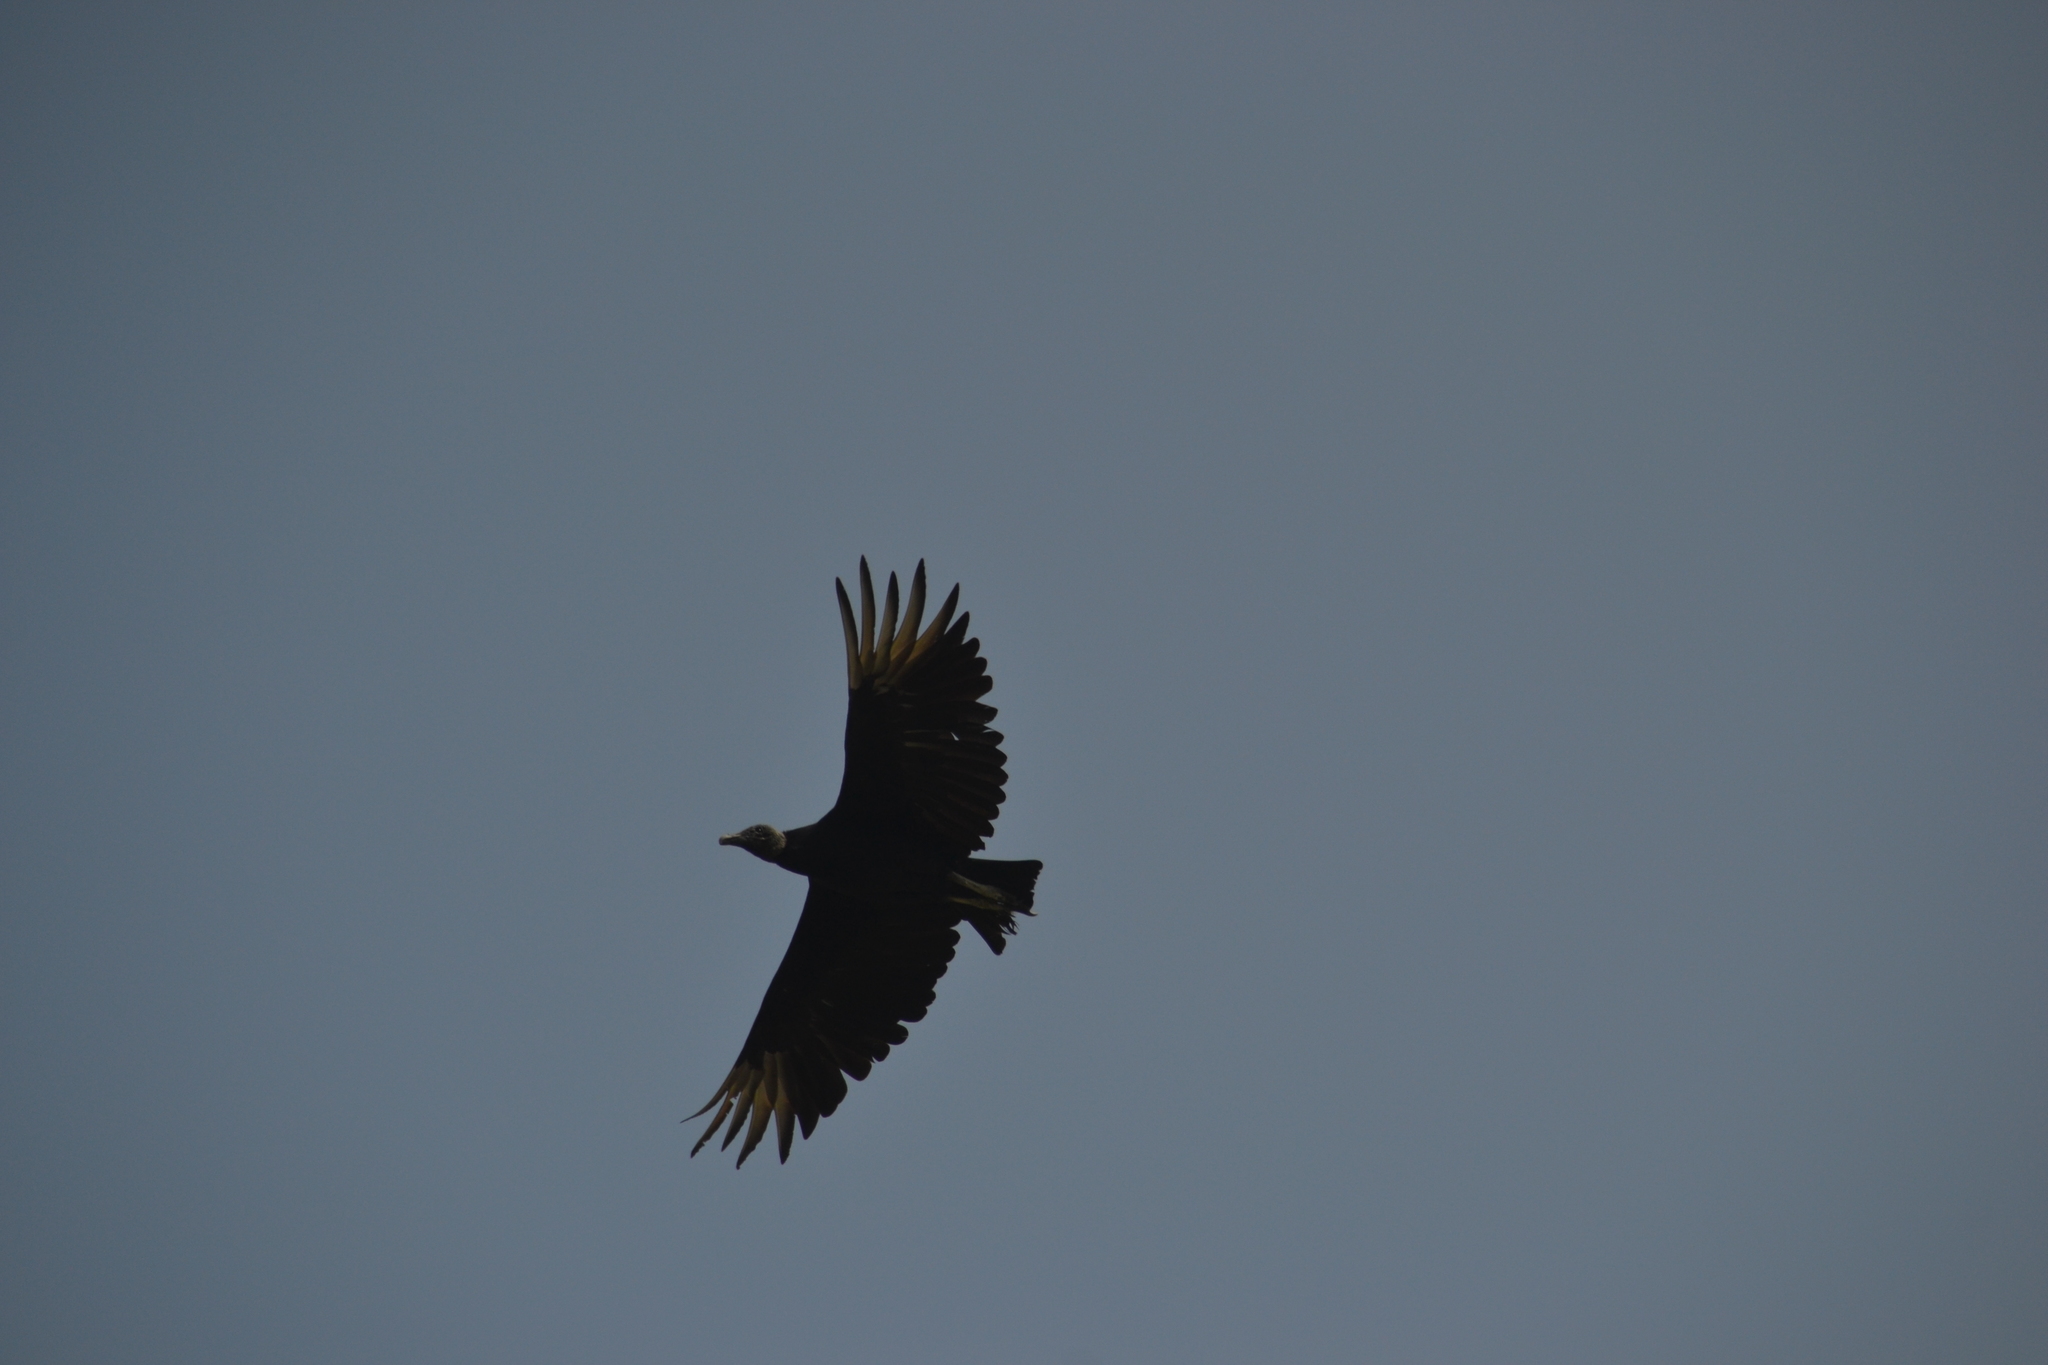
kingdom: Animalia
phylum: Chordata
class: Aves
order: Accipitriformes
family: Cathartidae
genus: Coragyps
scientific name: Coragyps atratus
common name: Black vulture
